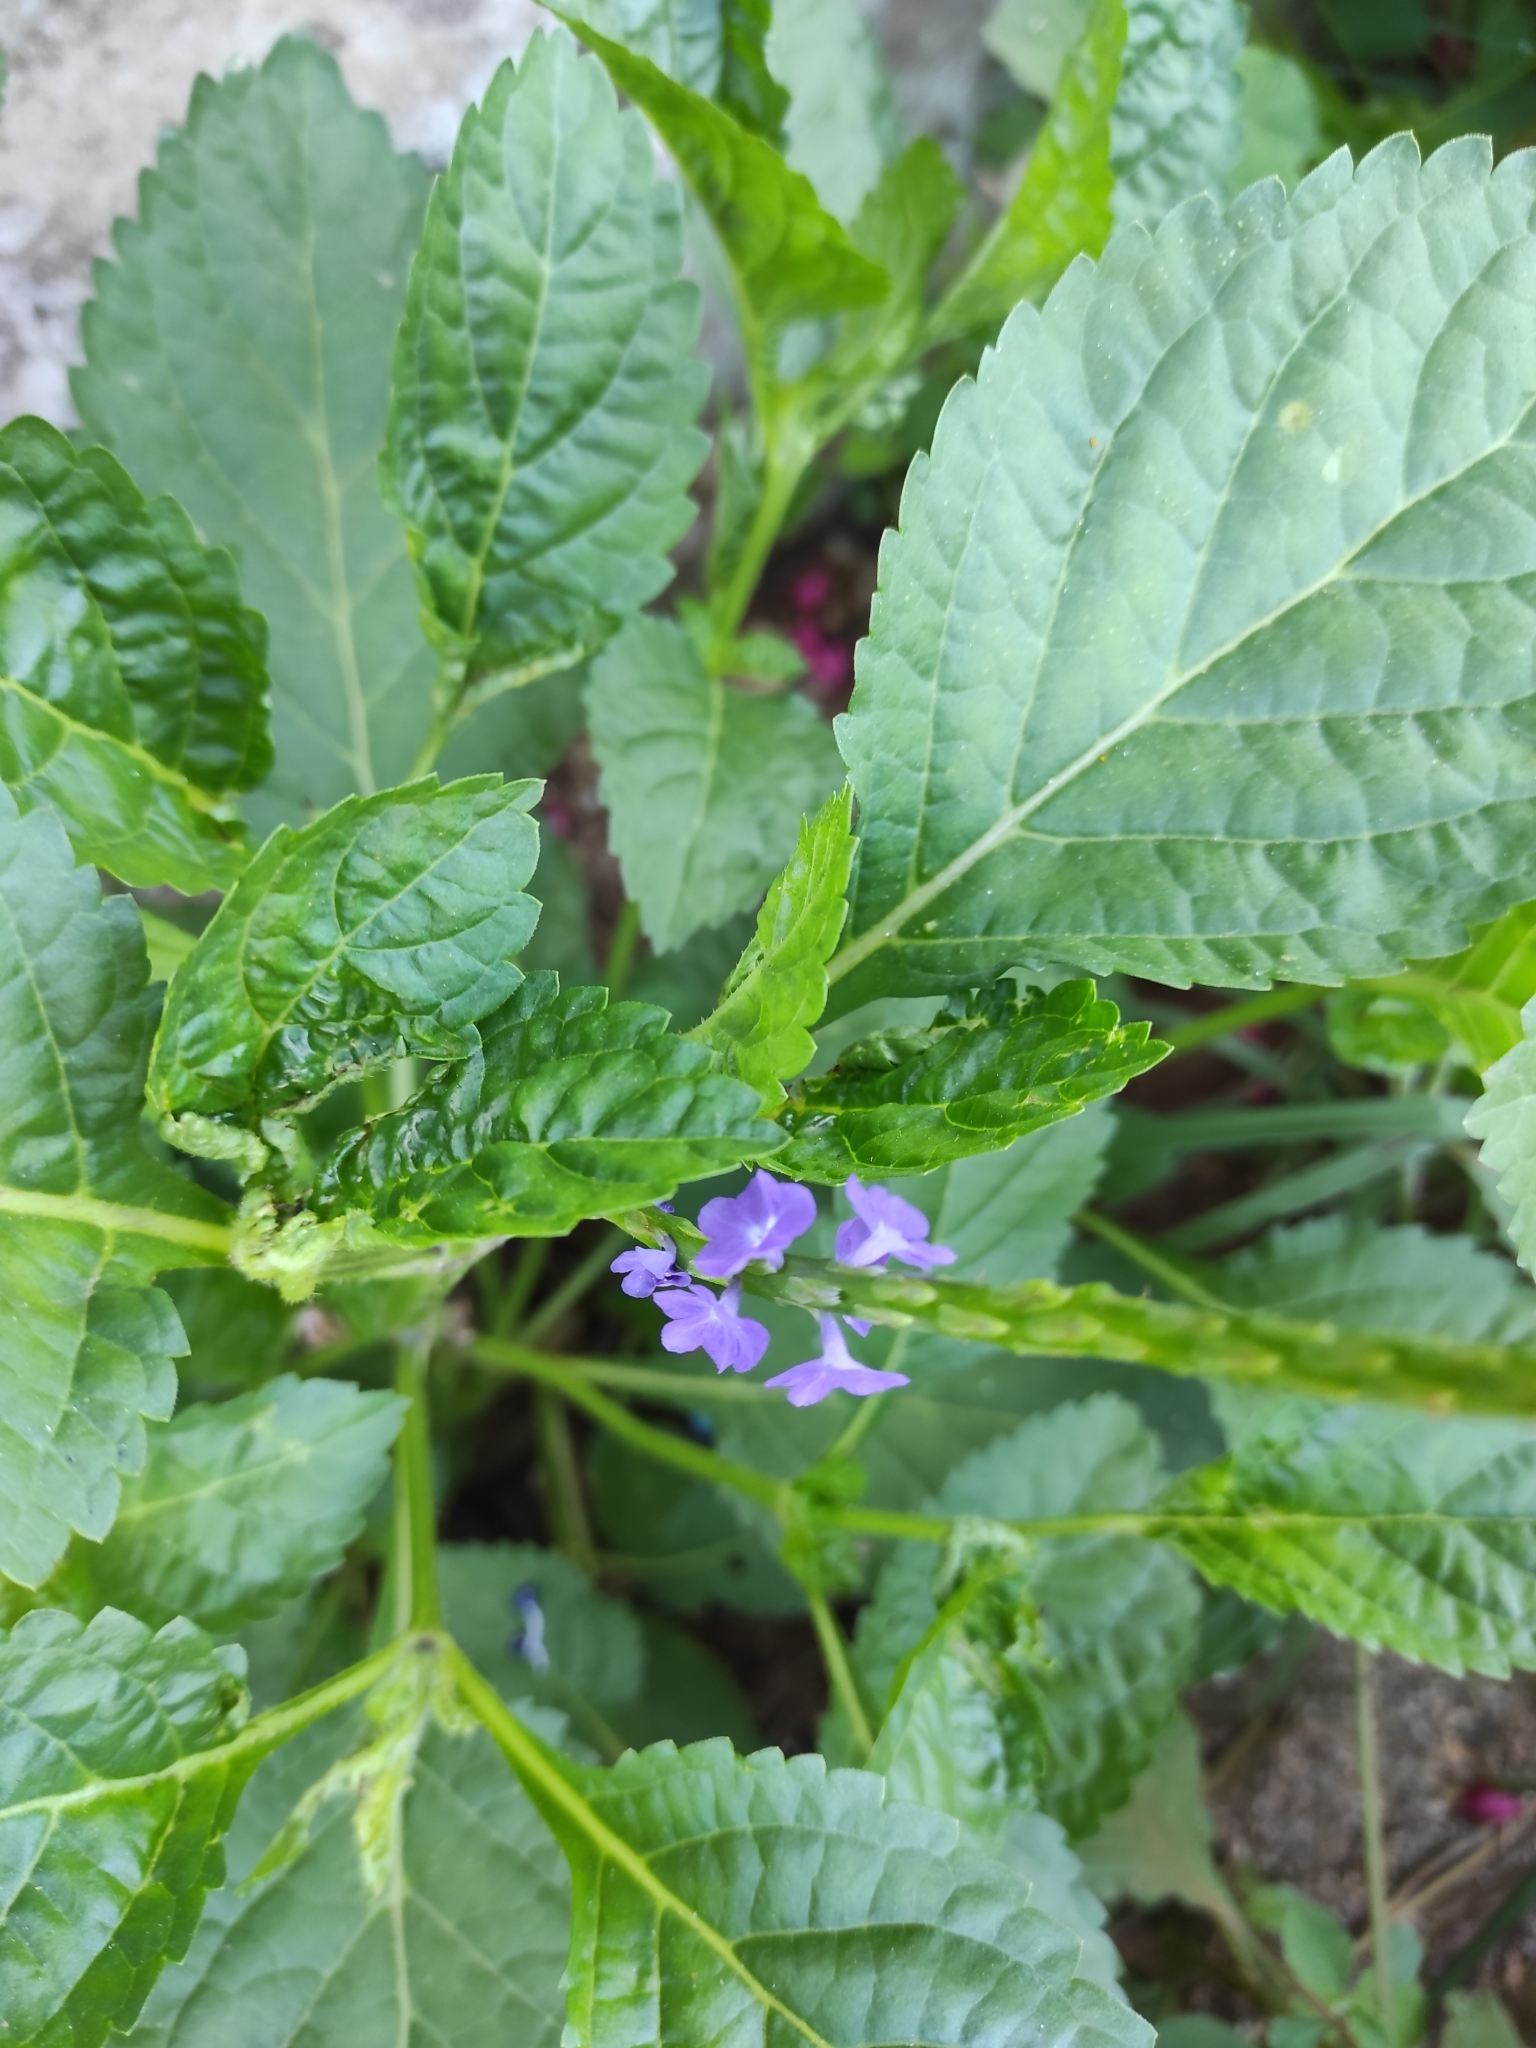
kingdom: Plantae
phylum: Tracheophyta
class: Magnoliopsida
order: Lamiales
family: Verbenaceae
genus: Stachytarpheta
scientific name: Stachytarpheta jamaicensis
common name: Light-blue snakeweed
